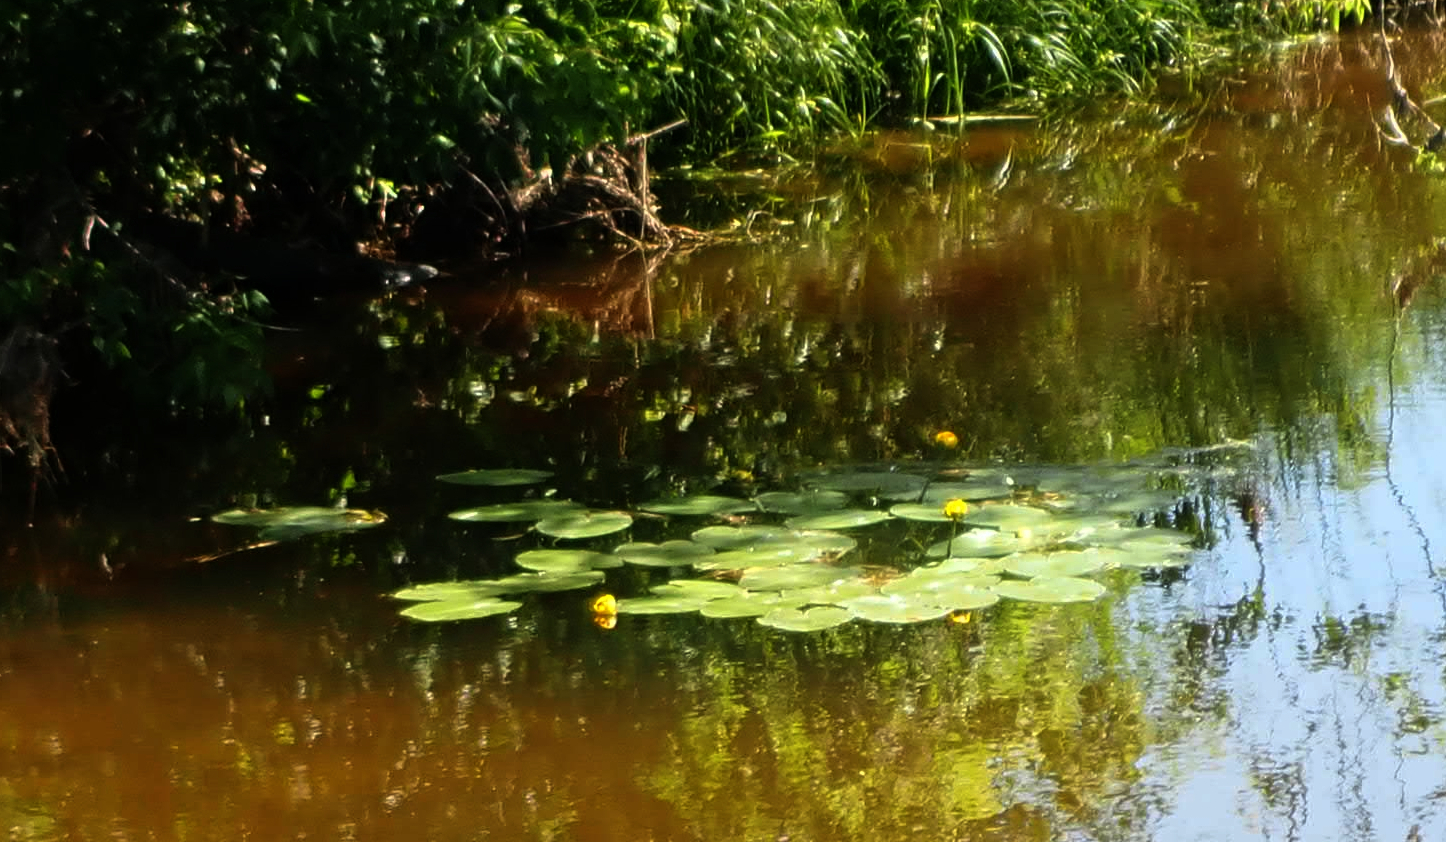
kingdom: Plantae
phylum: Tracheophyta
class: Magnoliopsida
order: Nymphaeales
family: Nymphaeaceae
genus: Nuphar
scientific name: Nuphar variegata
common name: Beaver-root
